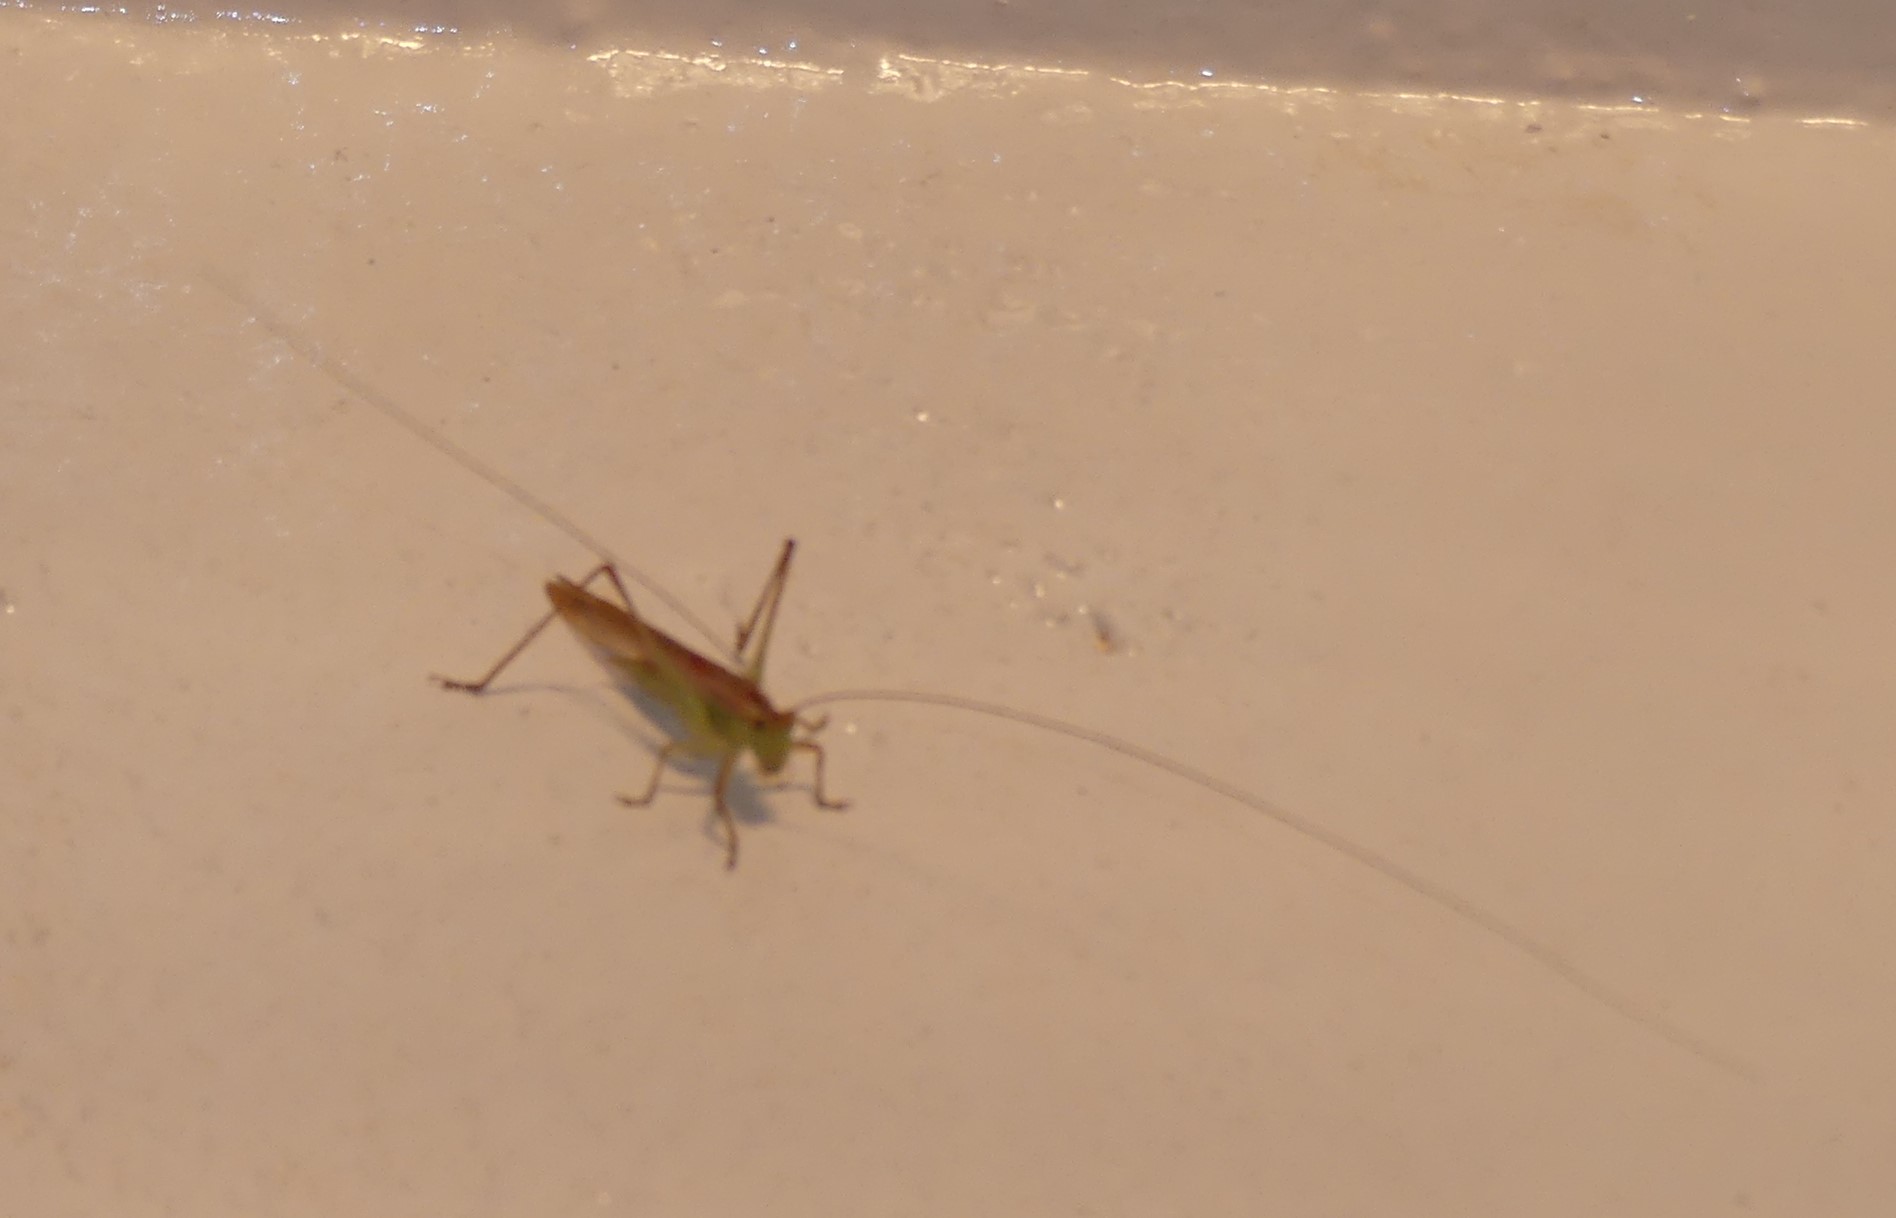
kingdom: Animalia
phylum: Arthropoda
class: Insecta
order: Orthoptera
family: Tettigoniidae
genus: Conocephalus
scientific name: Conocephalus conocephalus
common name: African meadow katydid
